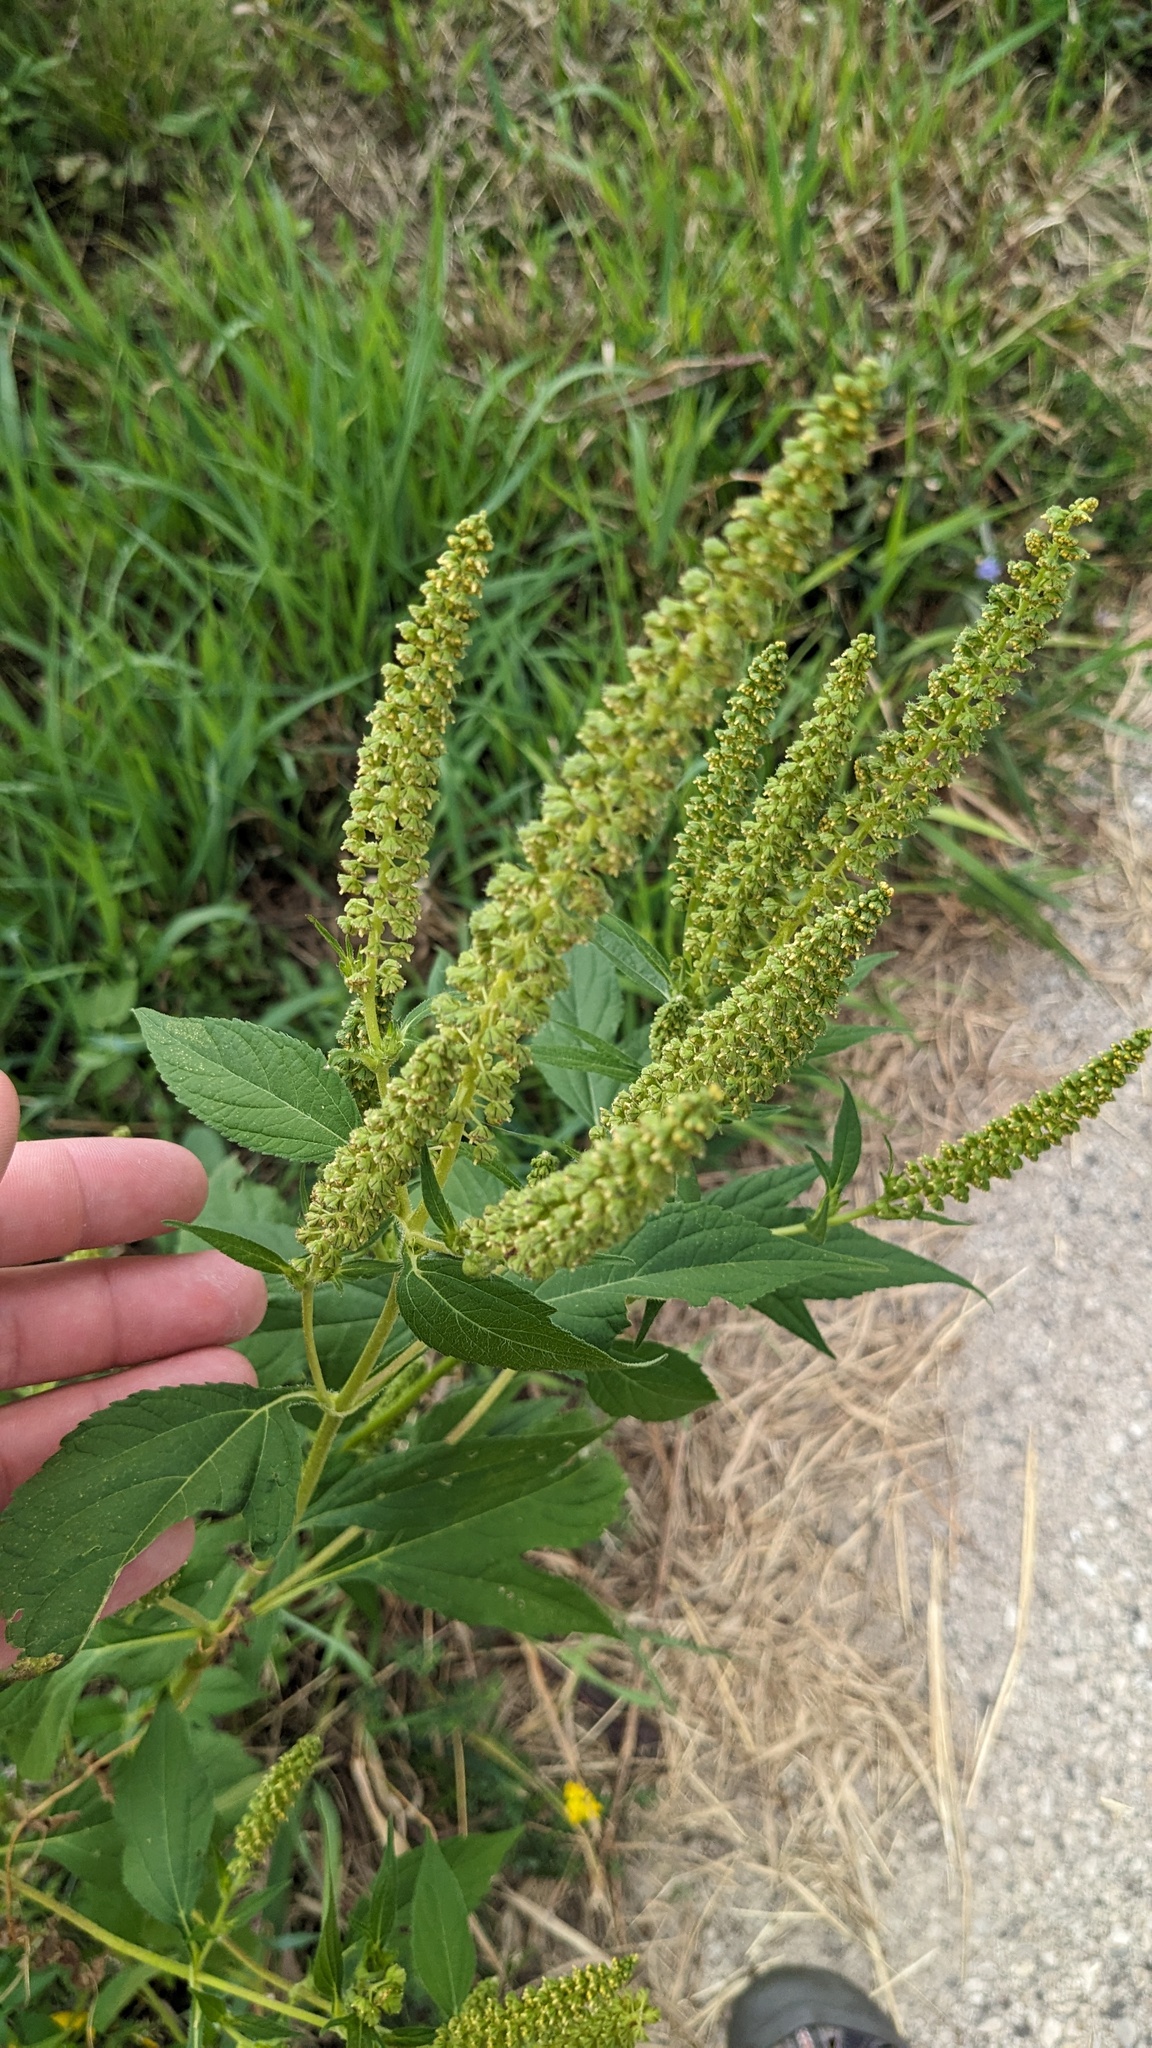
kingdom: Plantae
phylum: Tracheophyta
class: Magnoliopsida
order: Asterales
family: Asteraceae
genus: Ambrosia
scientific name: Ambrosia trifida
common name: Giant ragweed
